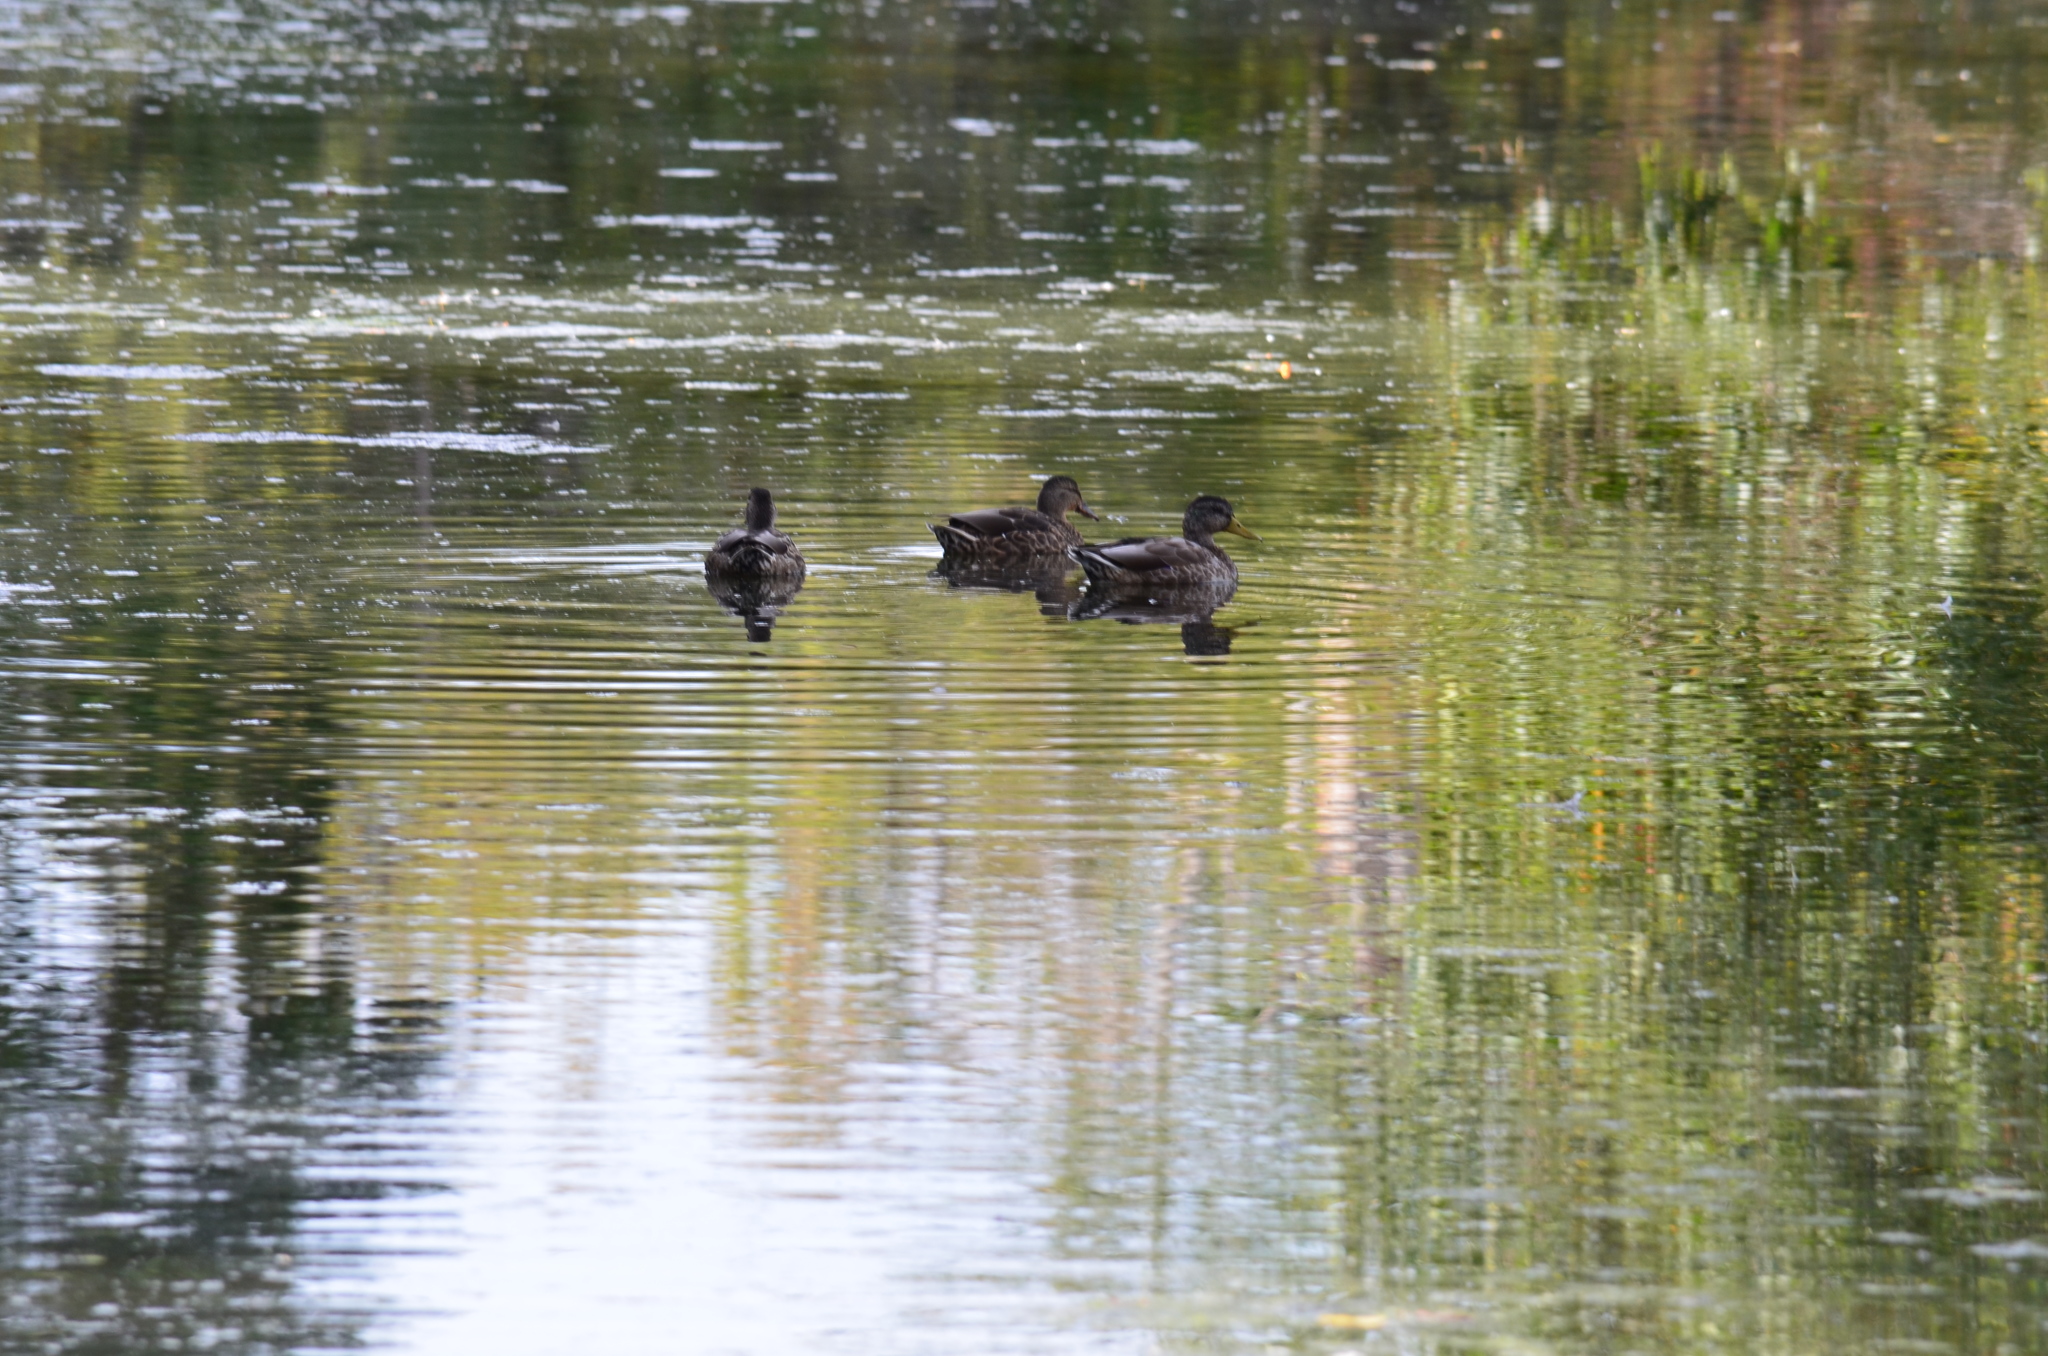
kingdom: Animalia
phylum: Chordata
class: Aves
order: Anseriformes
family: Anatidae
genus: Anas
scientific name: Anas platyrhynchos
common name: Mallard
